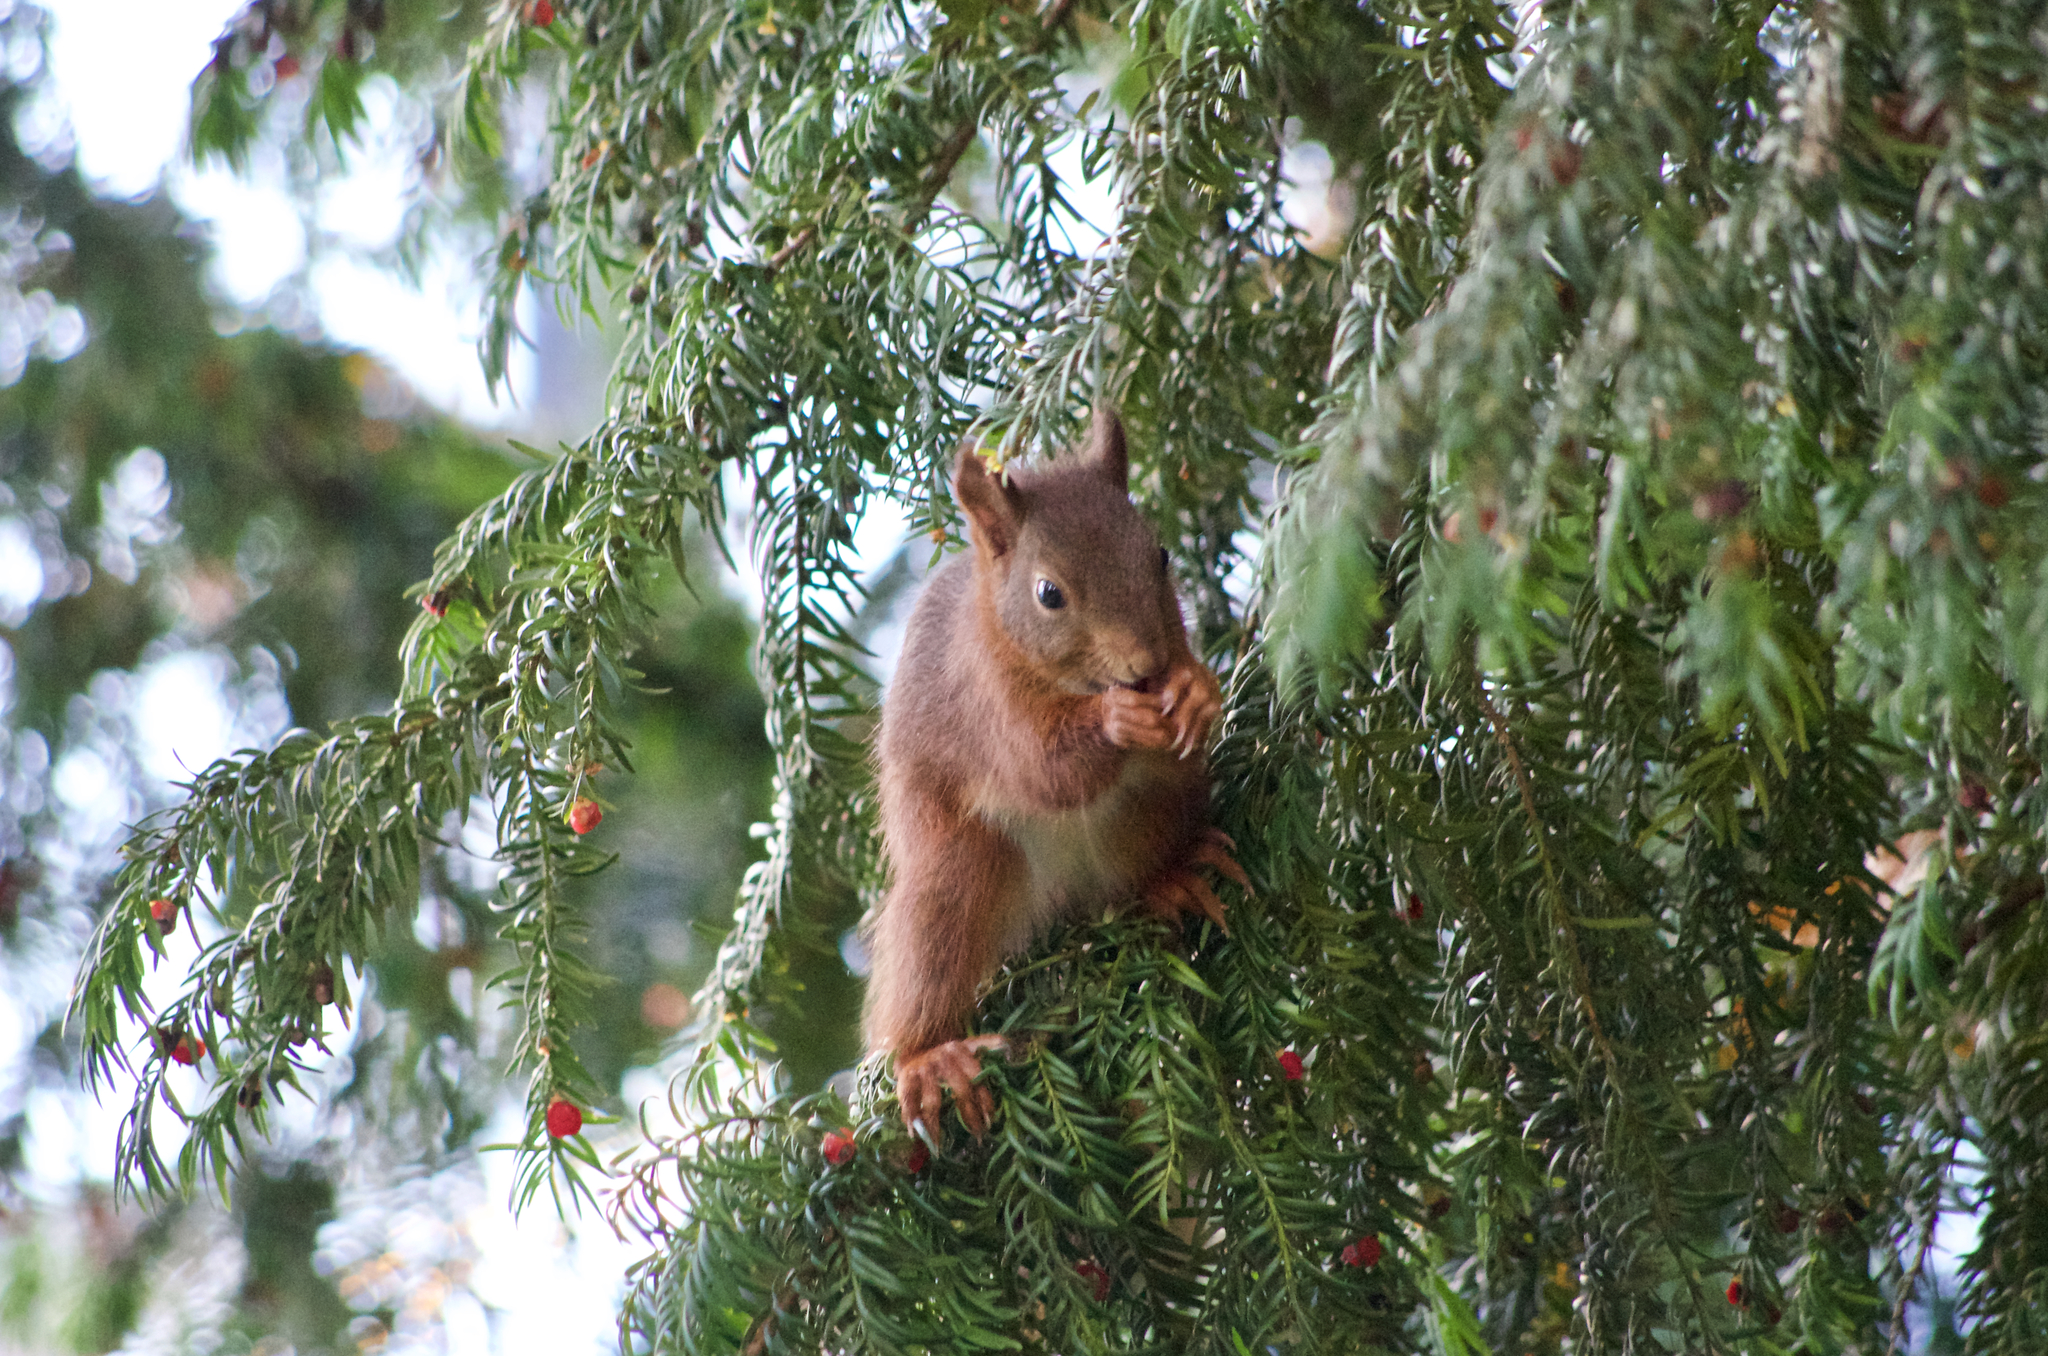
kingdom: Animalia
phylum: Chordata
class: Mammalia
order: Rodentia
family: Sciuridae
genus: Sciurus
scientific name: Sciurus vulgaris
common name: Eurasian red squirrel
